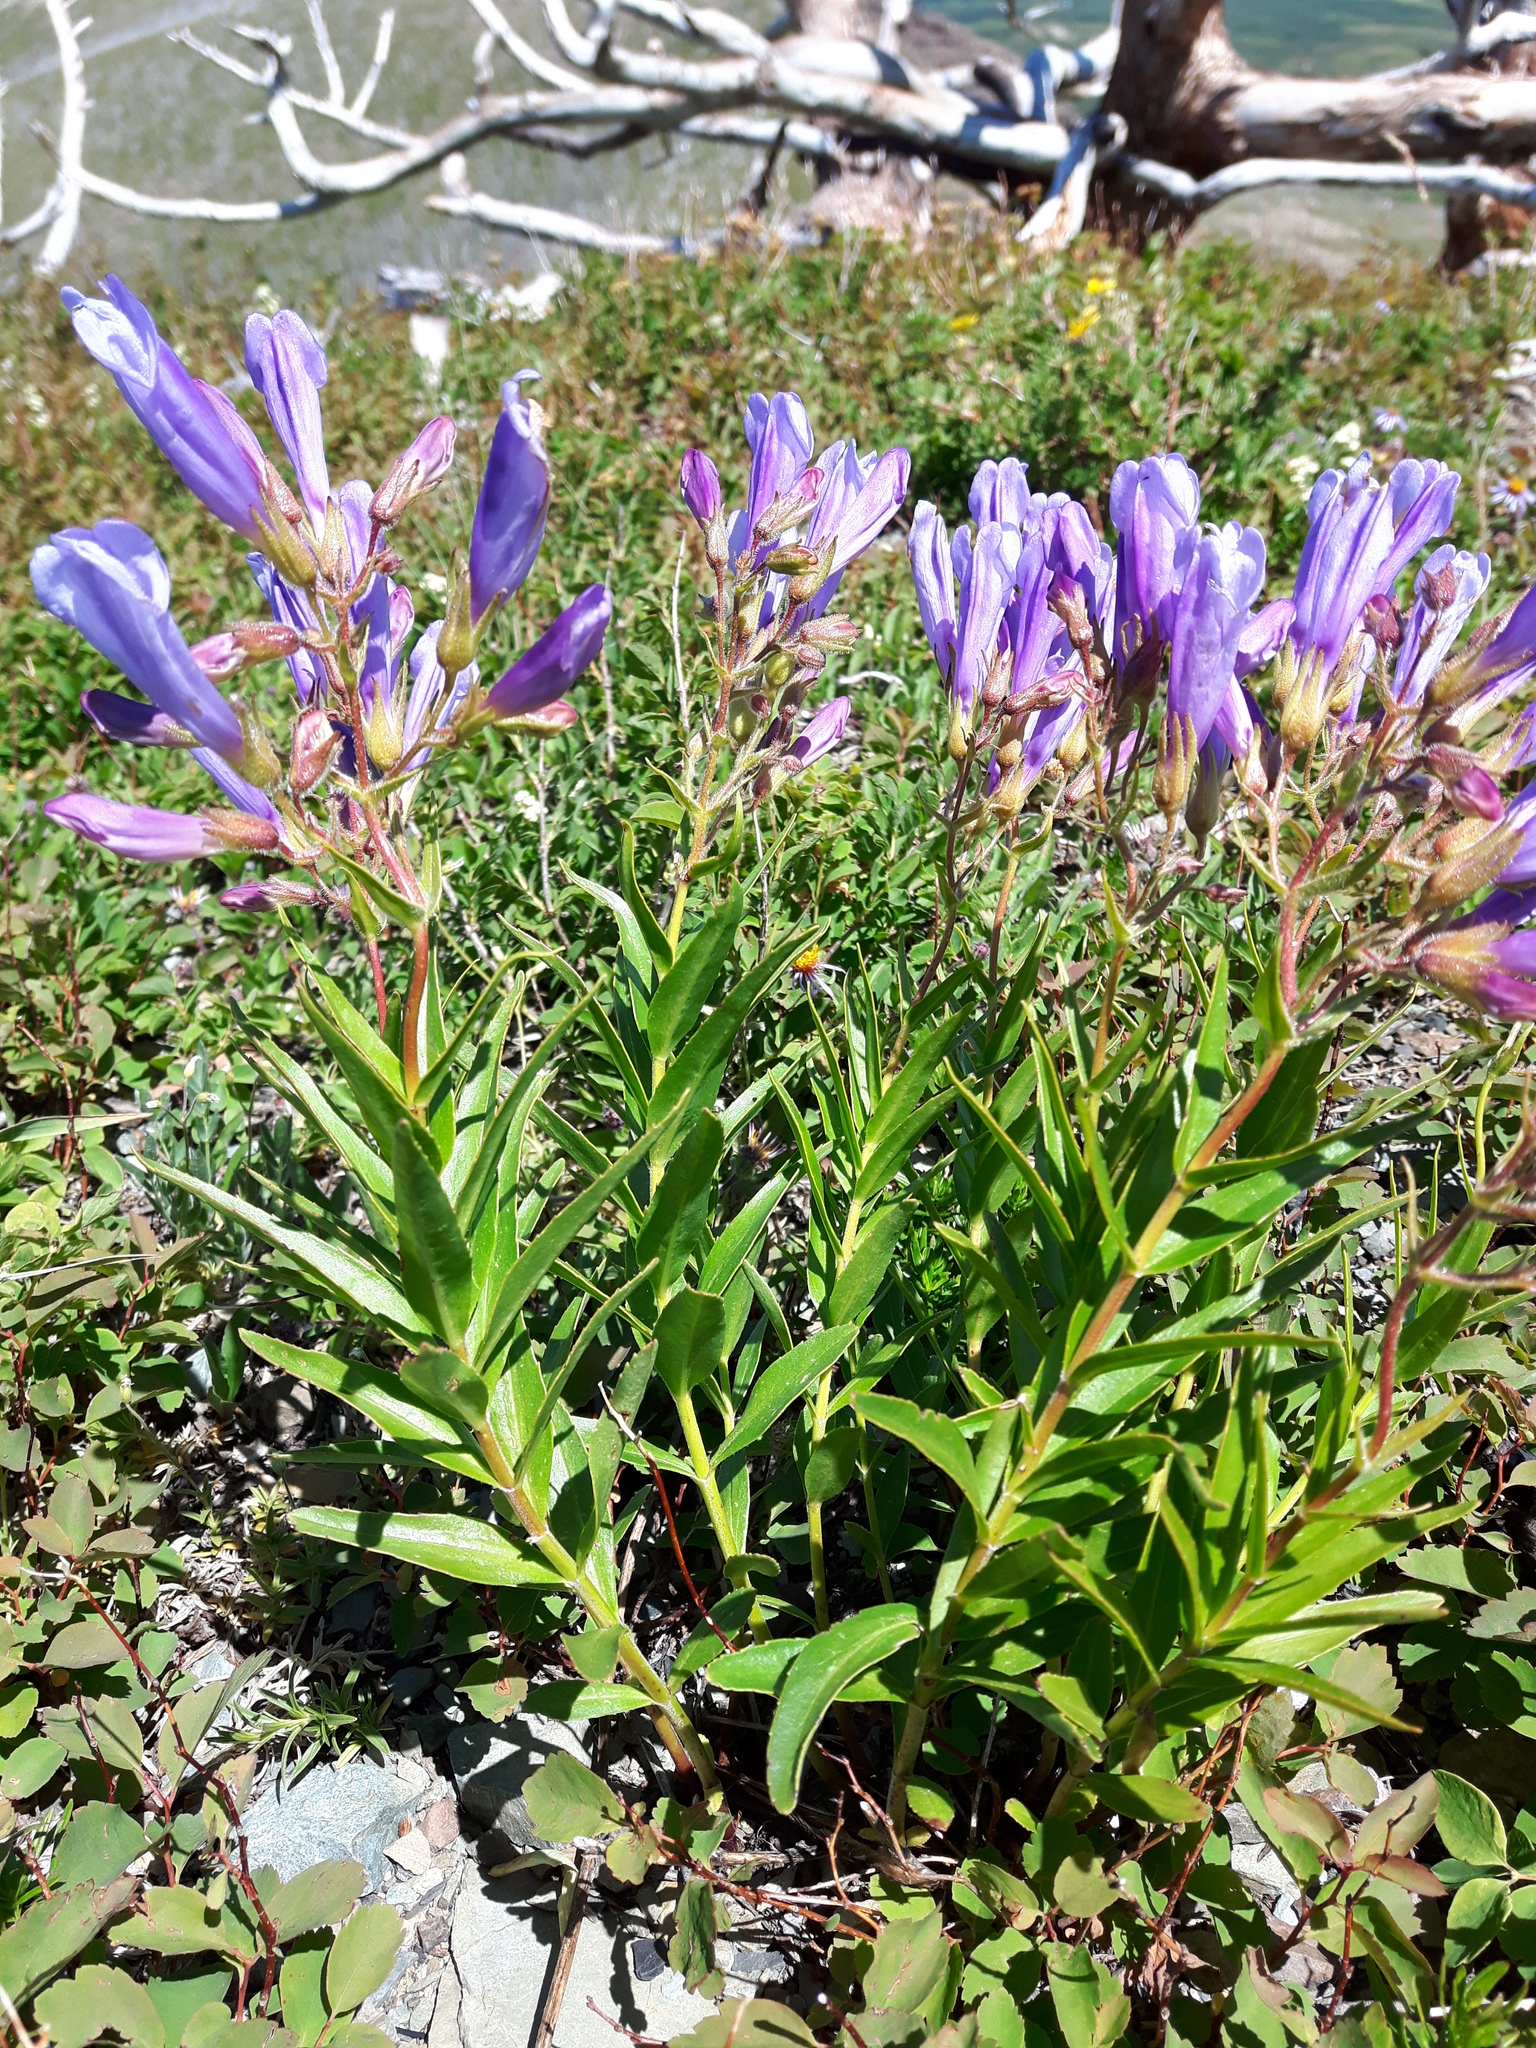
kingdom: Plantae
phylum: Tracheophyta
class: Magnoliopsida
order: Lamiales
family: Plantaginaceae
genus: Penstemon
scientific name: Penstemon lyalli
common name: Lyall's beardtongue
